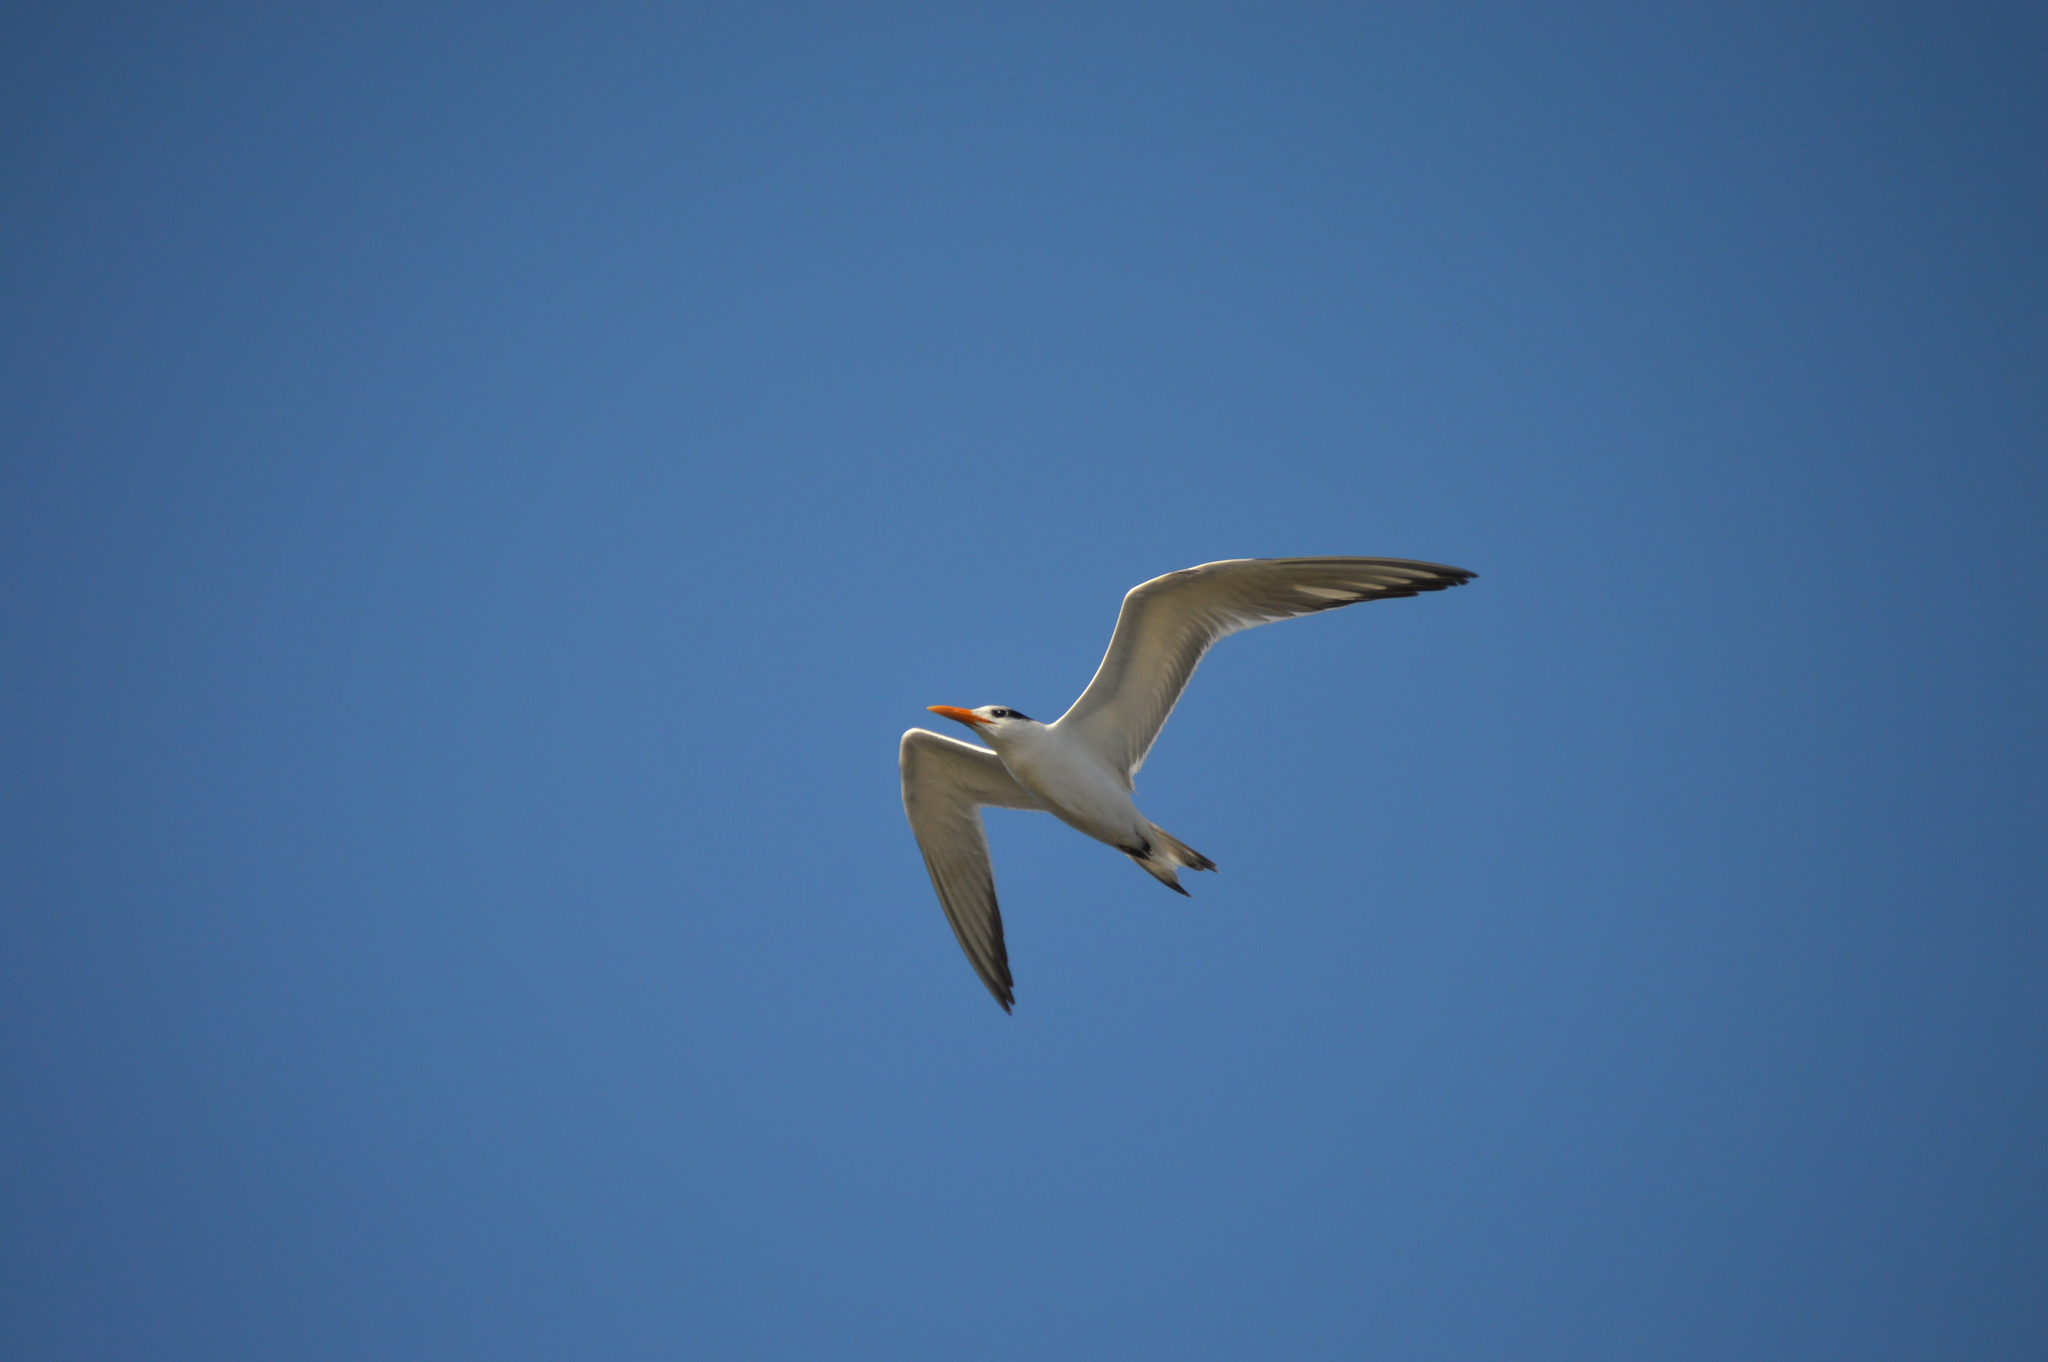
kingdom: Animalia
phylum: Chordata
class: Aves
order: Charadriiformes
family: Laridae
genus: Thalasseus
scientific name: Thalasseus maximus
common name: Royal tern
